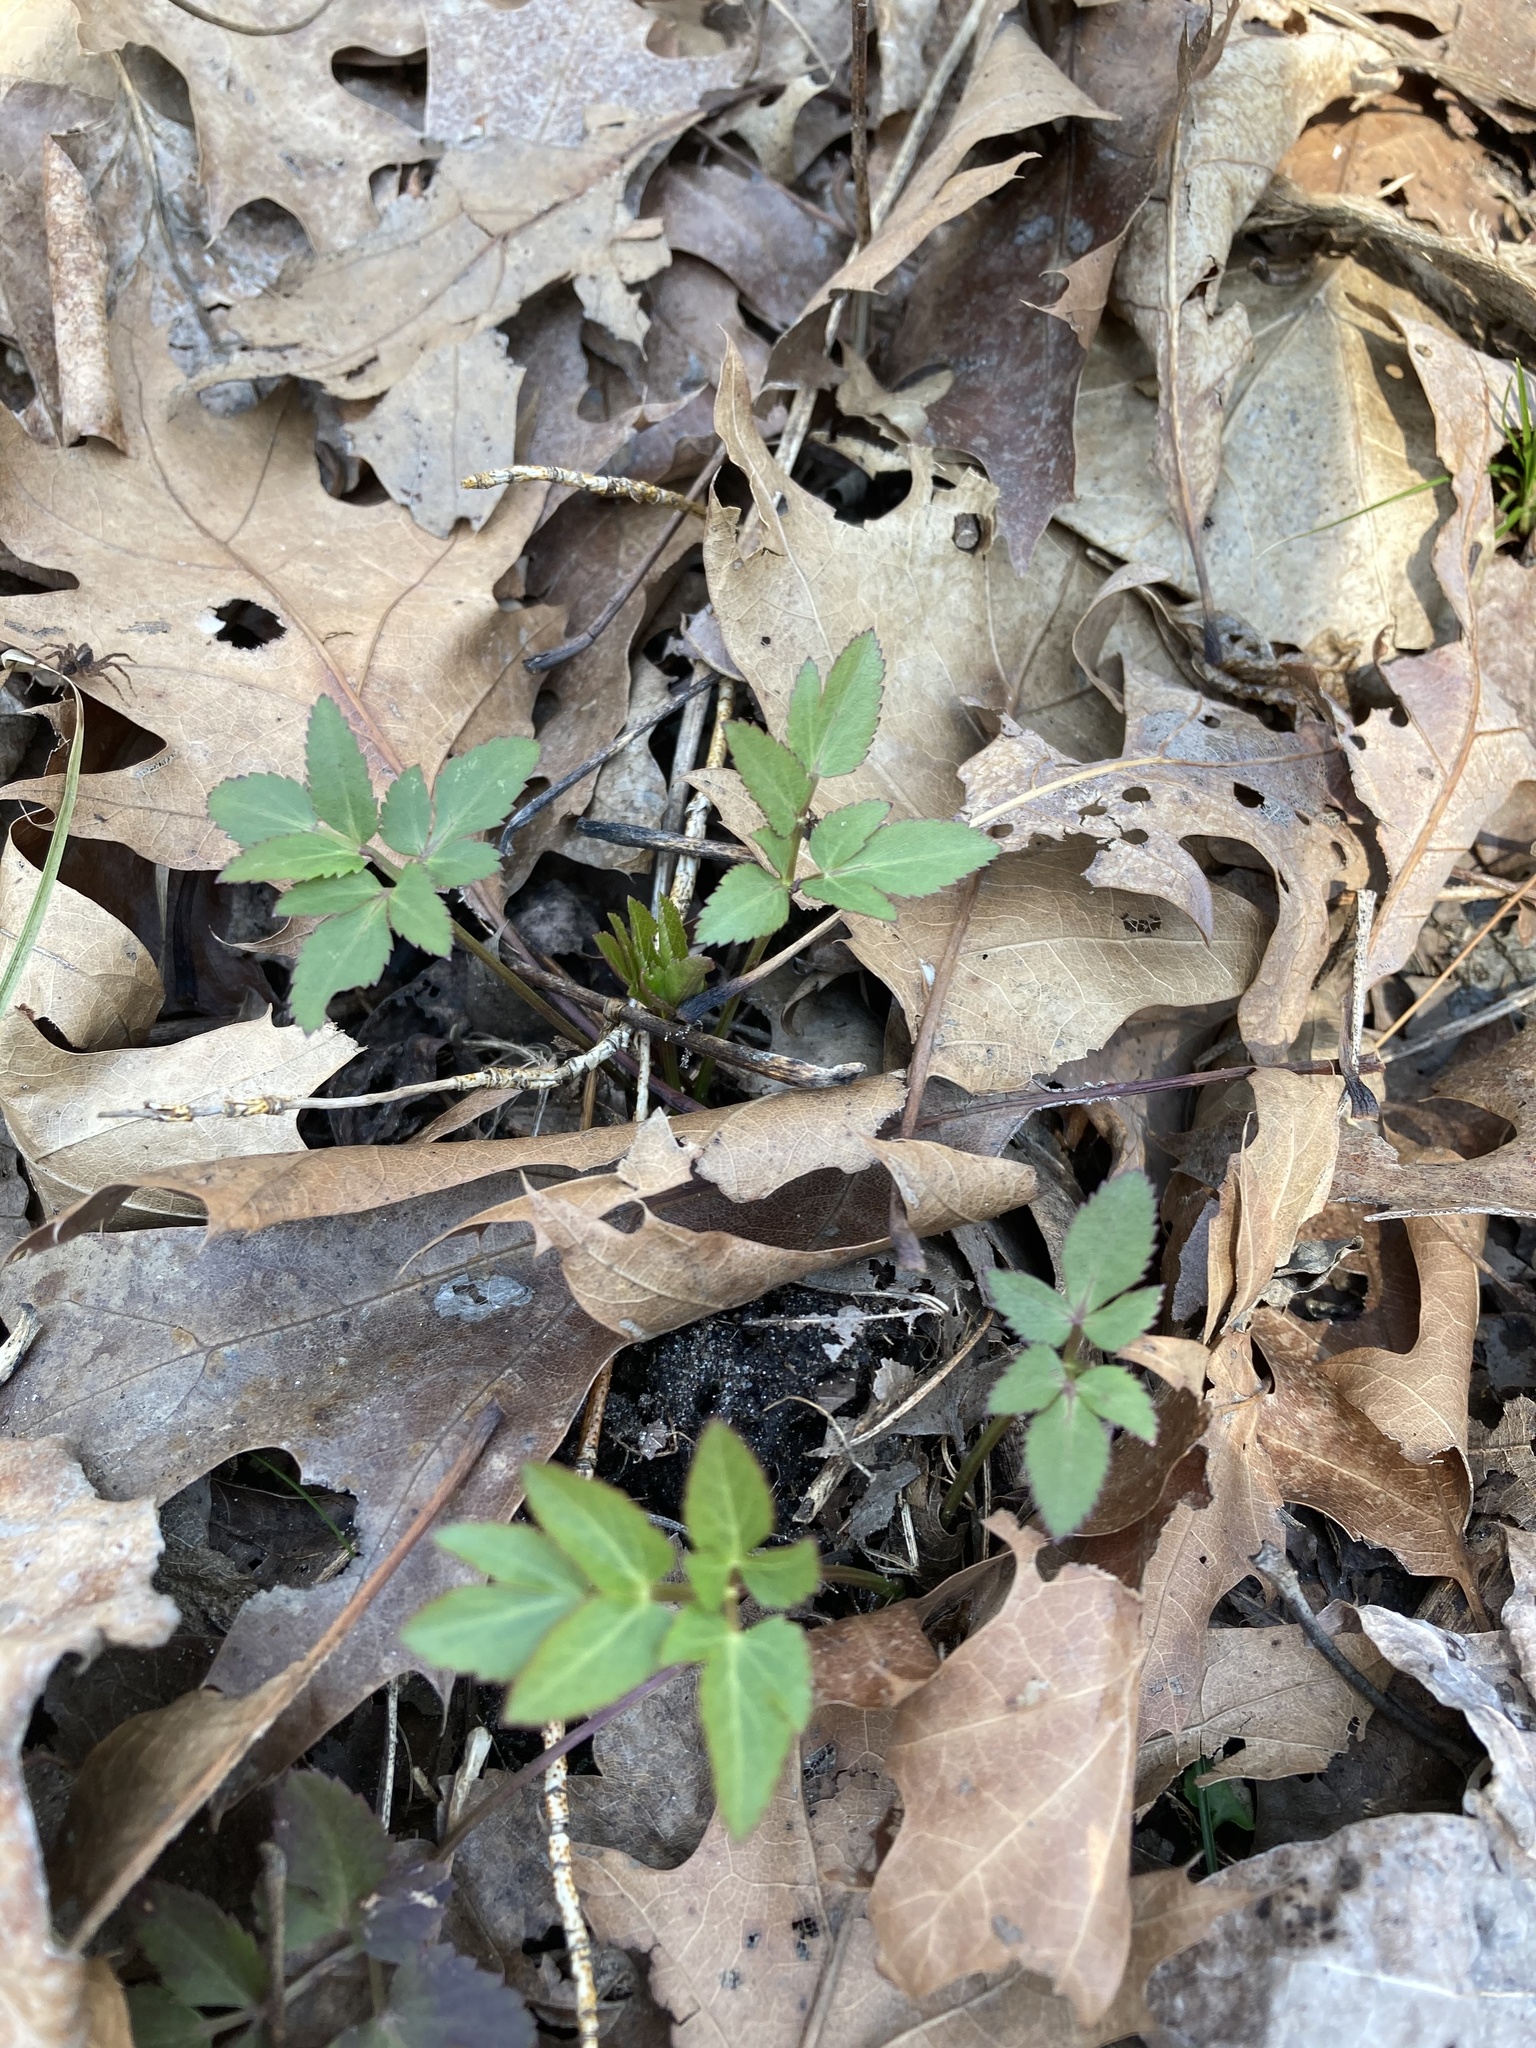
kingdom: Plantae
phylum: Tracheophyta
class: Magnoliopsida
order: Apiales
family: Apiaceae
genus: Zizia
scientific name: Zizia aurea
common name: Golden alexanders
